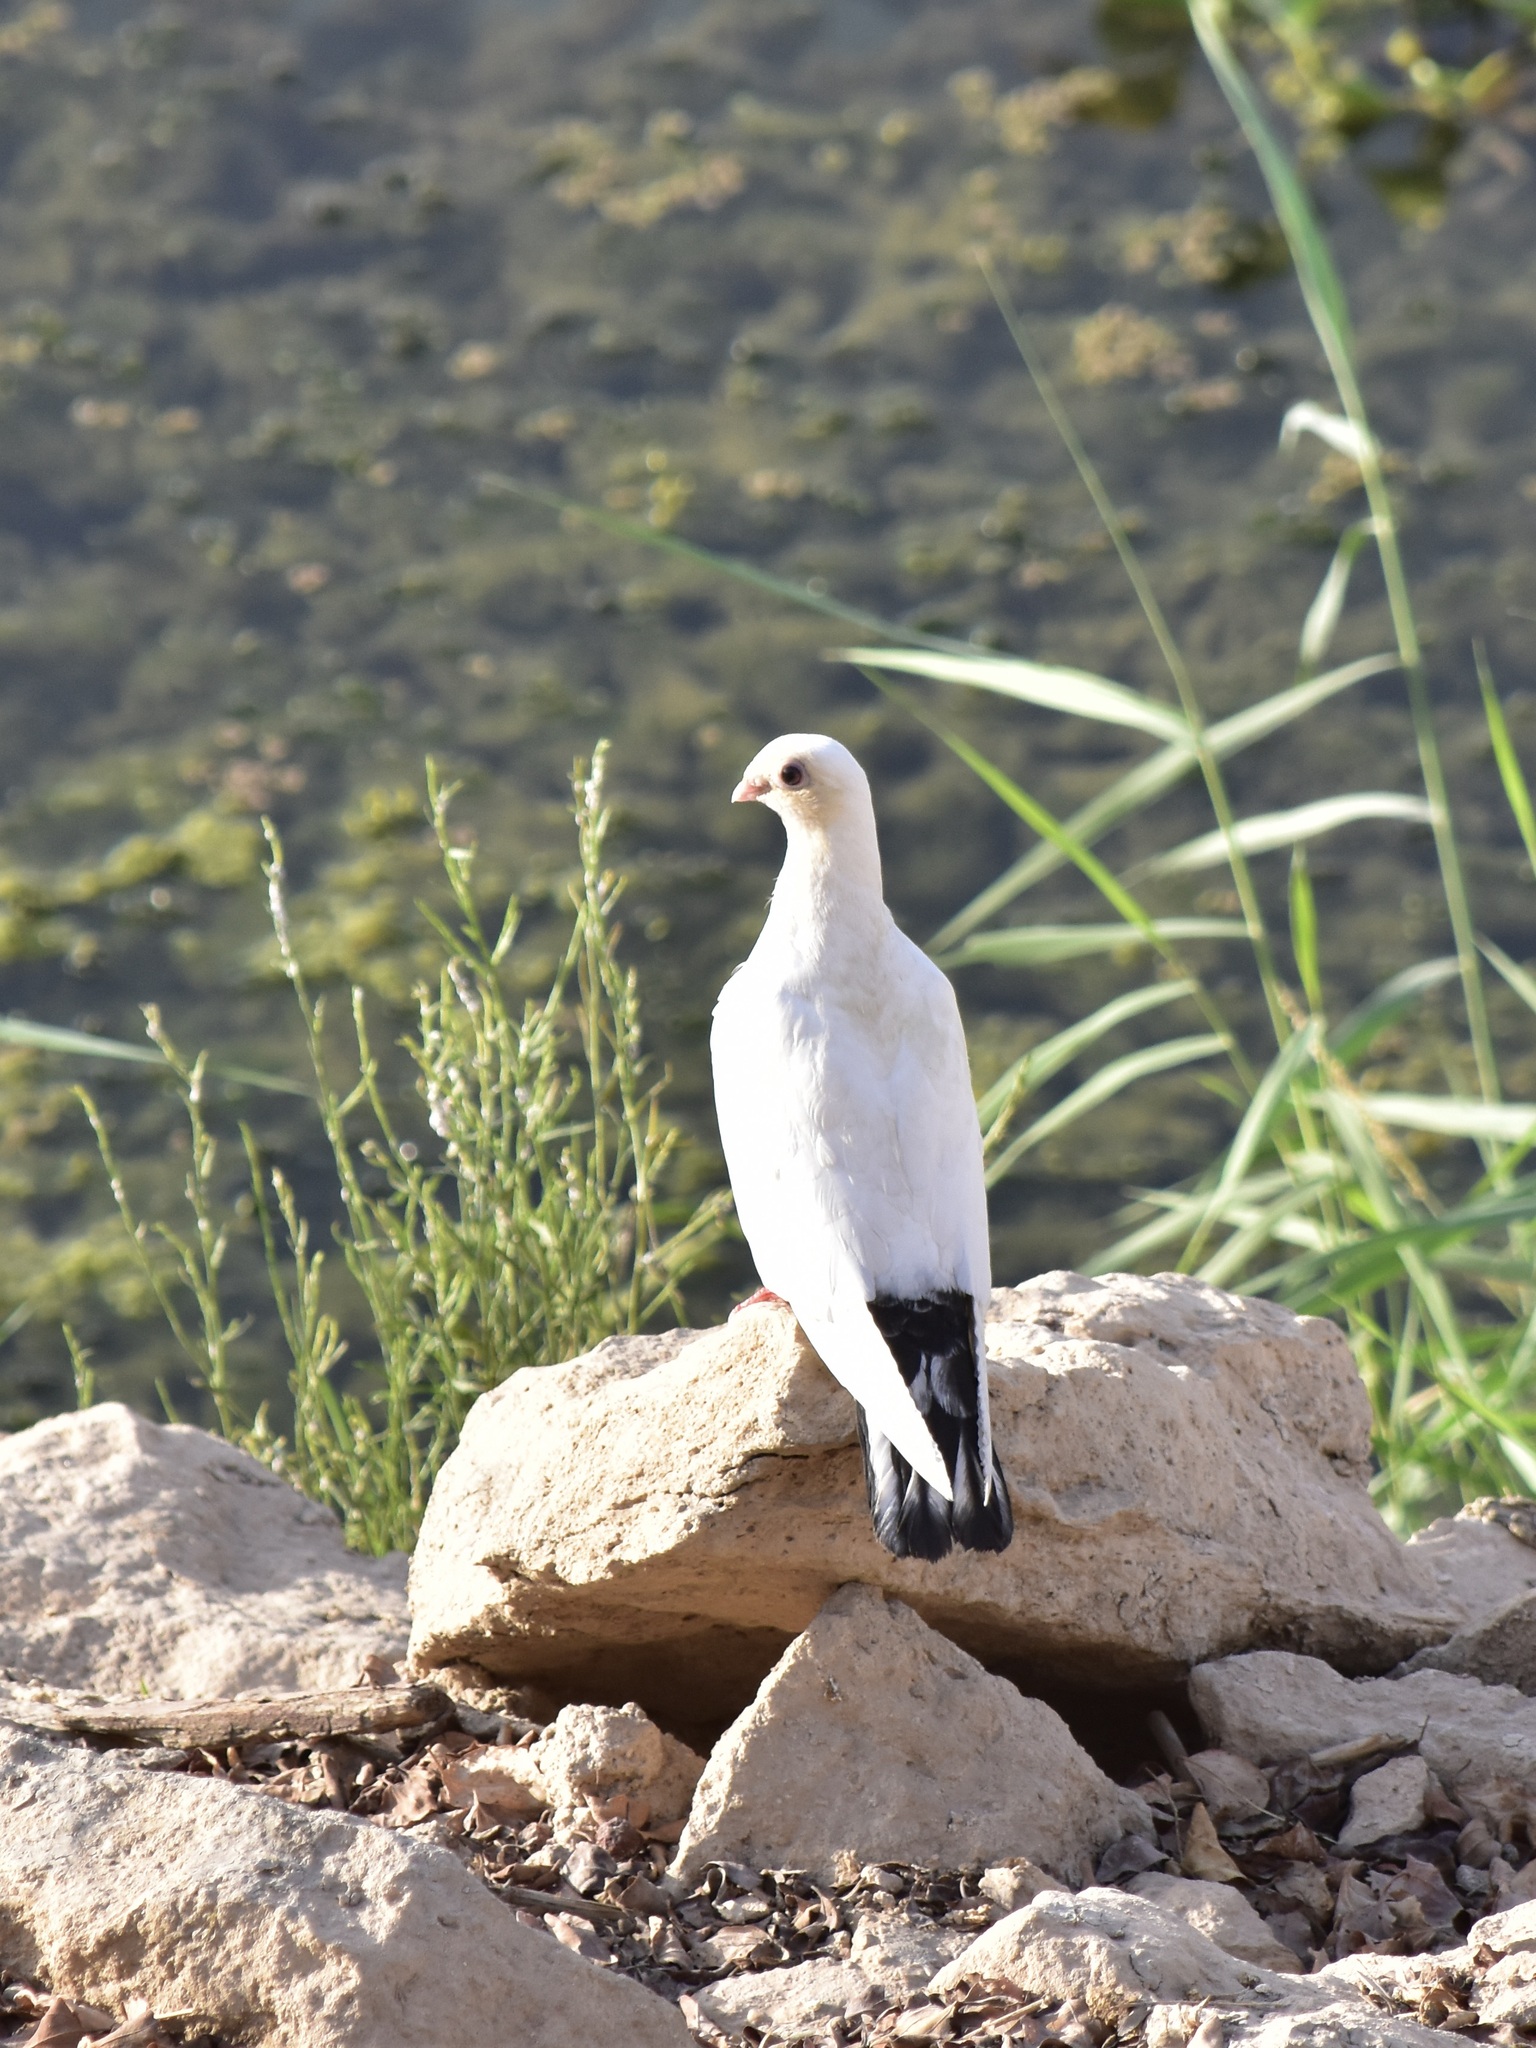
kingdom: Animalia
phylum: Chordata
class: Aves
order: Columbiformes
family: Columbidae
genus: Columba
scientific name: Columba livia
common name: Rock pigeon
